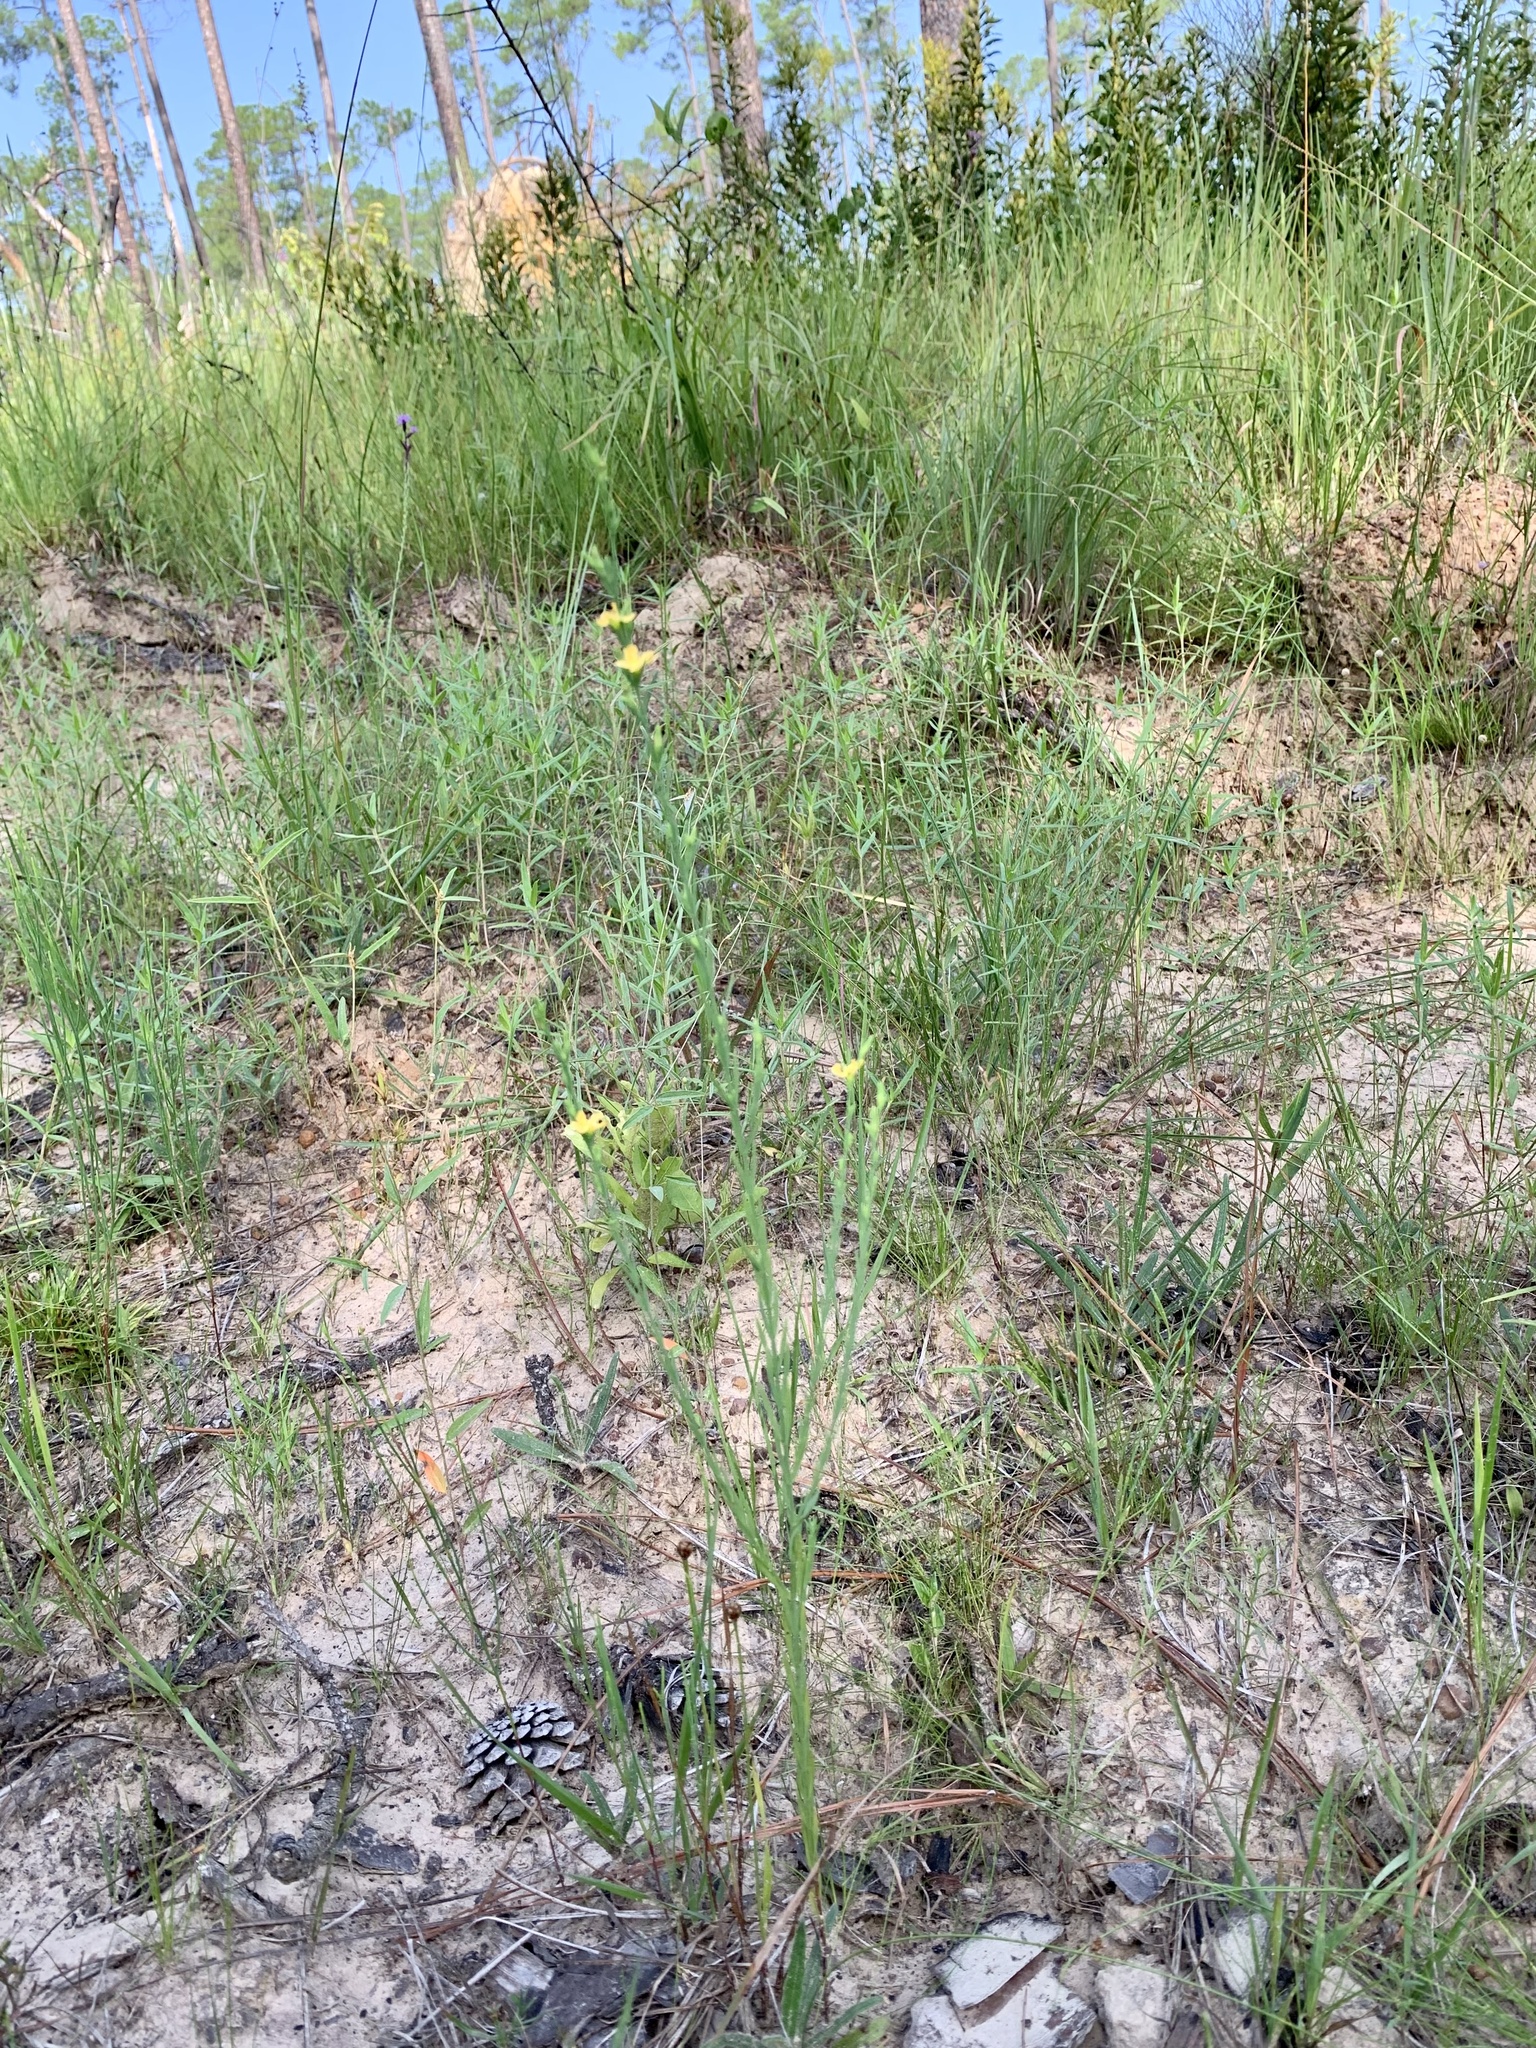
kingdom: Plantae
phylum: Tracheophyta
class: Magnoliopsida
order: Malpighiales
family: Hypericaceae
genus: Hypericum
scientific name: Hypericum drummondii
